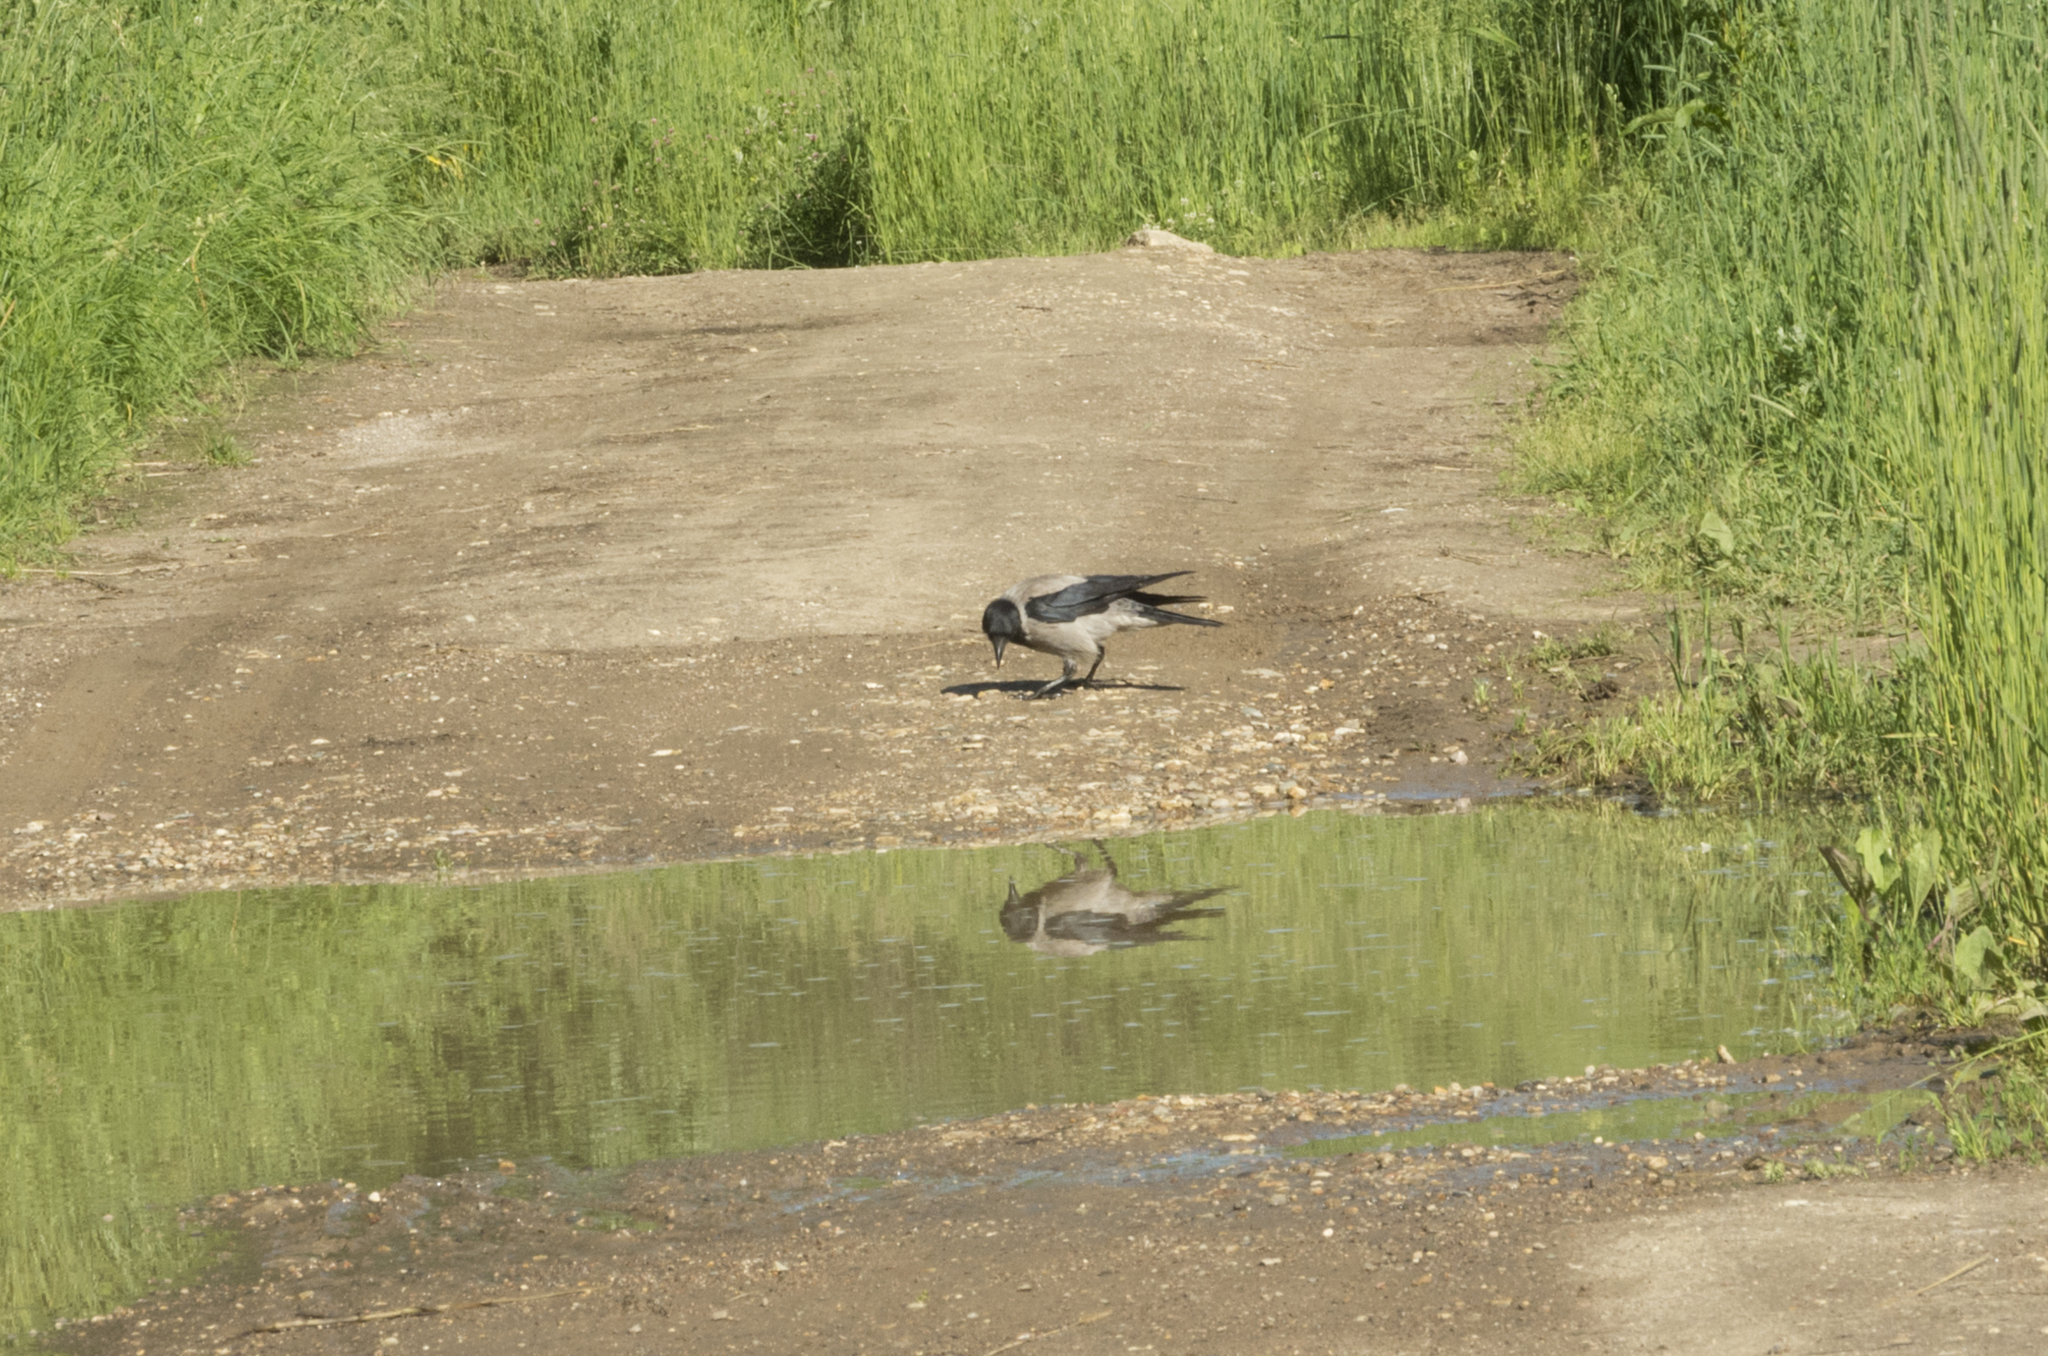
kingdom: Animalia
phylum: Chordata
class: Aves
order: Passeriformes
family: Corvidae
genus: Corvus
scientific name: Corvus cornix
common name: Hooded crow
